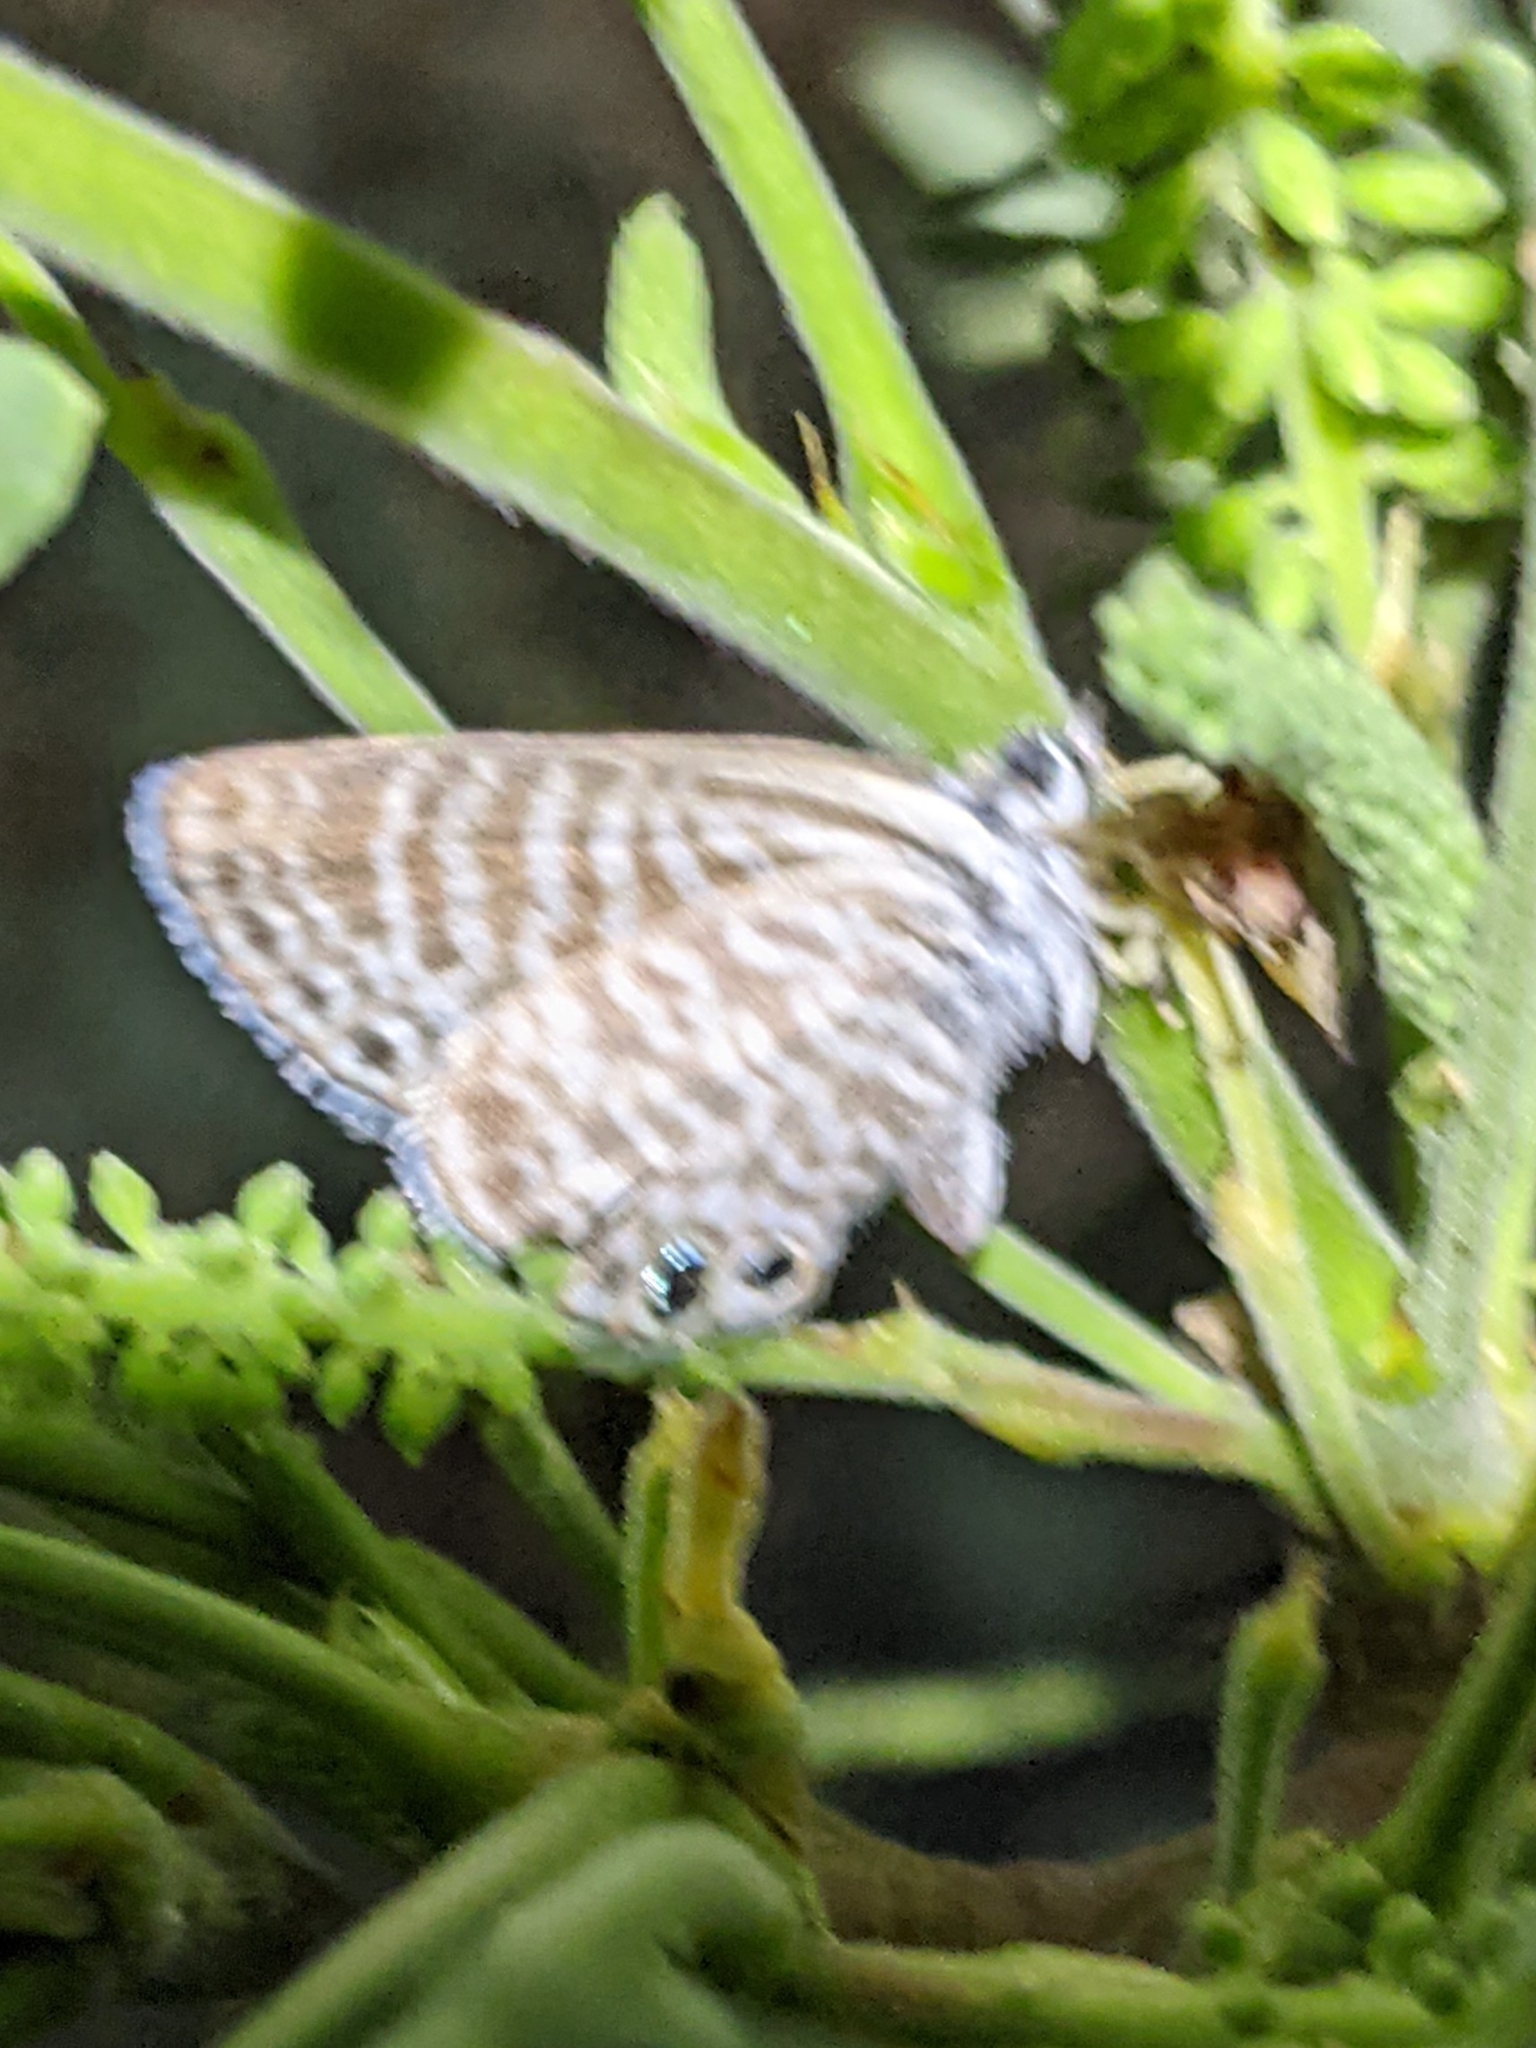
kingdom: Animalia
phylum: Arthropoda
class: Insecta
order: Lepidoptera
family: Lycaenidae
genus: Leptotes
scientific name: Leptotes marina
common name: Marine blue
